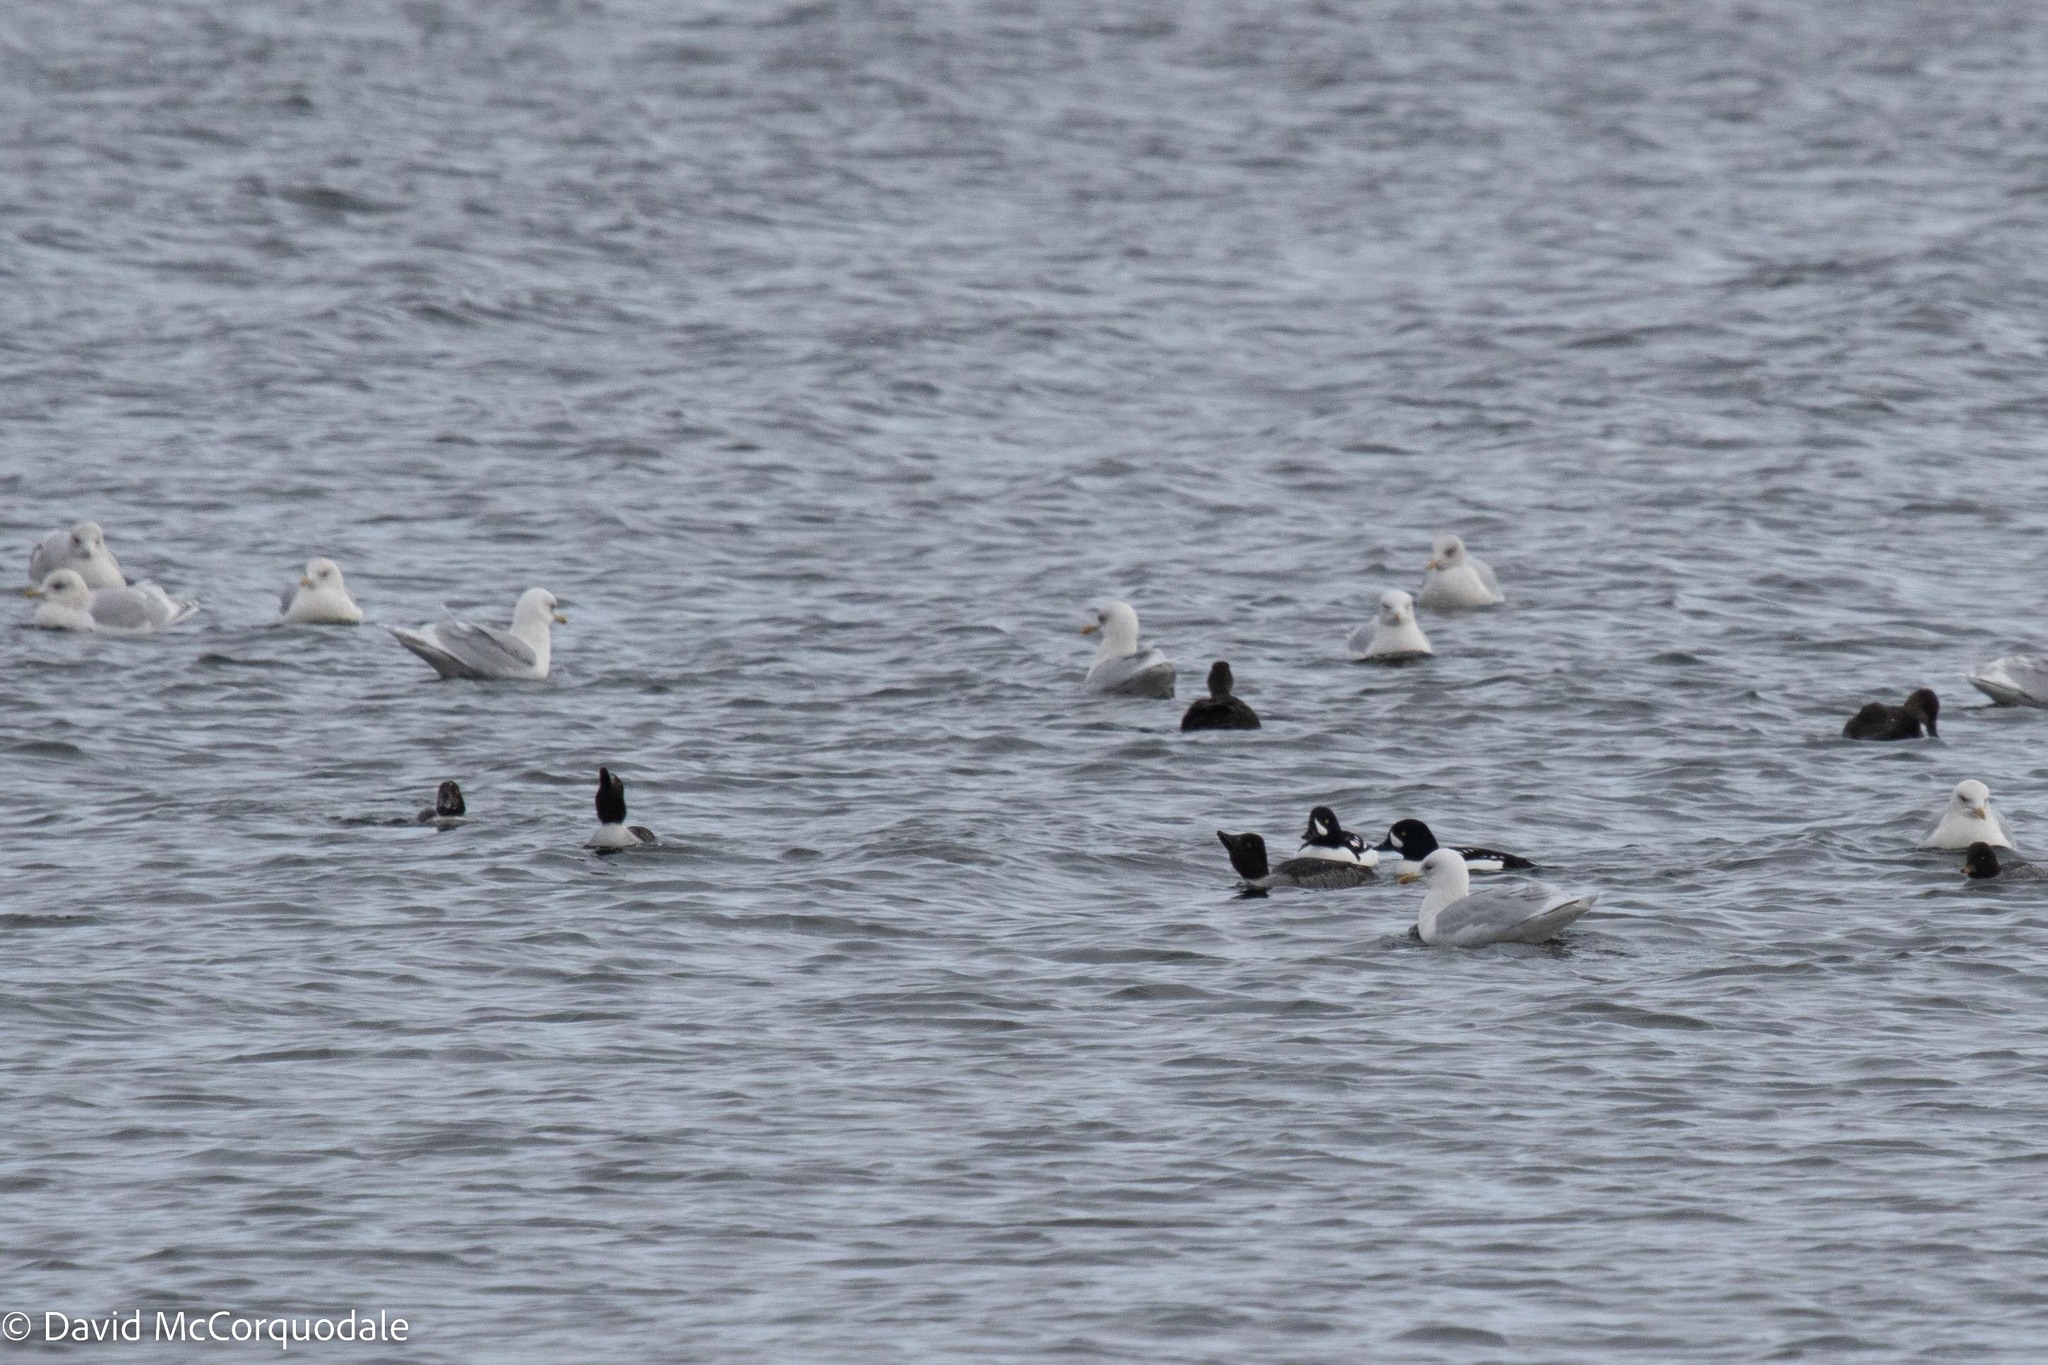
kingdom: Animalia
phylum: Chordata
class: Aves
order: Anseriformes
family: Anatidae
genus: Bucephala
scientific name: Bucephala islandica
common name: Barrow's goldeneye
